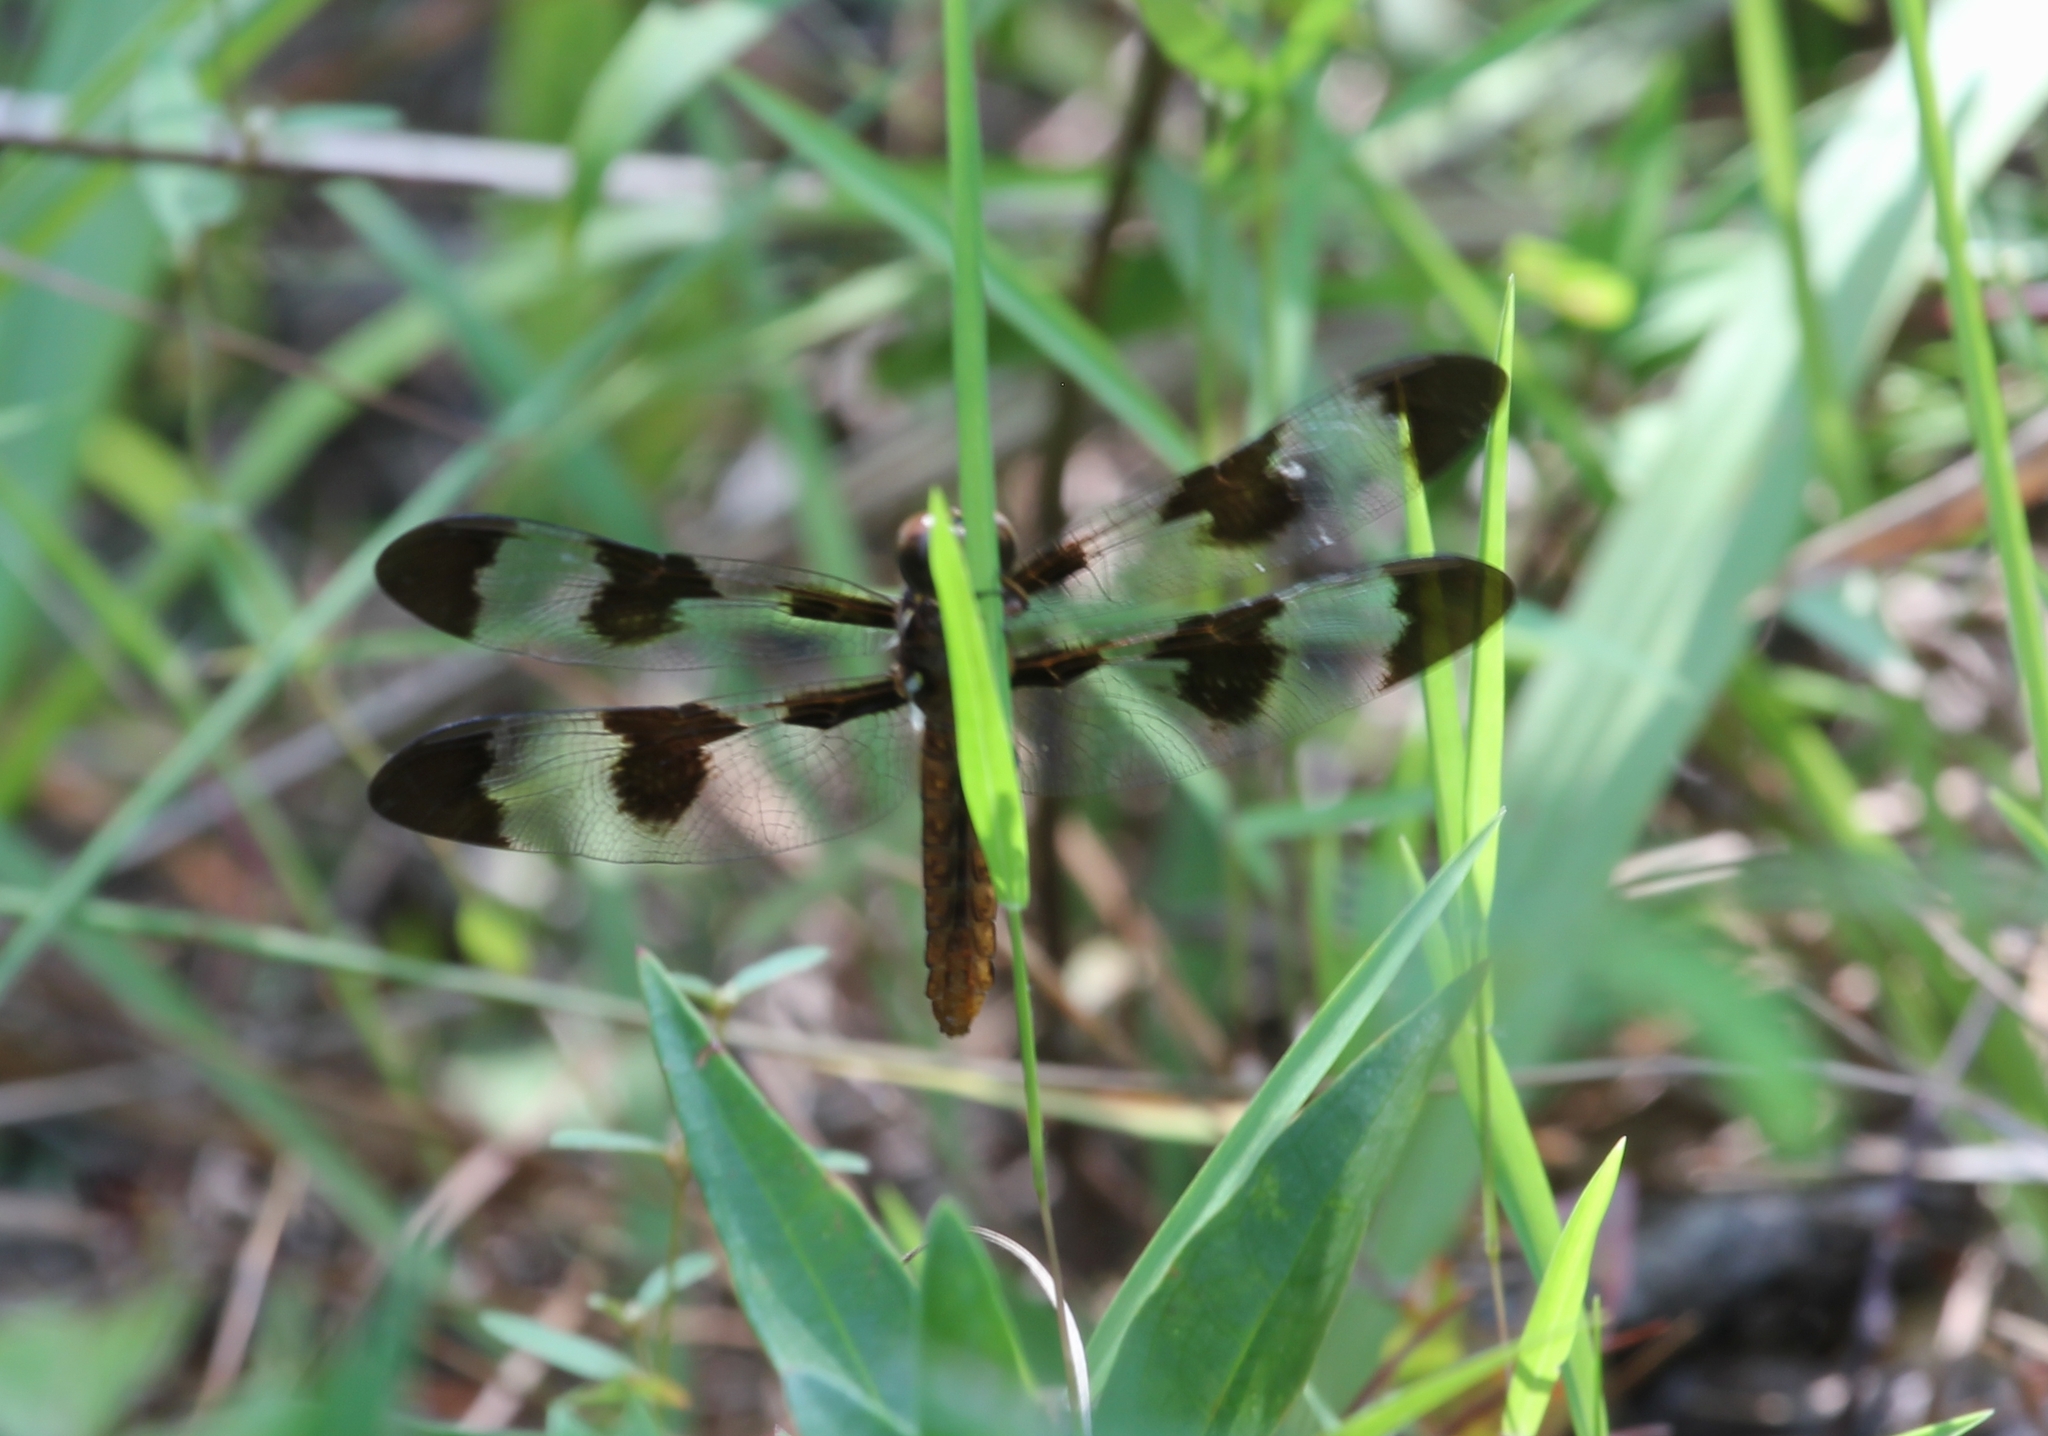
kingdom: Animalia
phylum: Arthropoda
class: Insecta
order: Odonata
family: Libellulidae
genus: Plathemis
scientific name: Plathemis lydia
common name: Common whitetail
